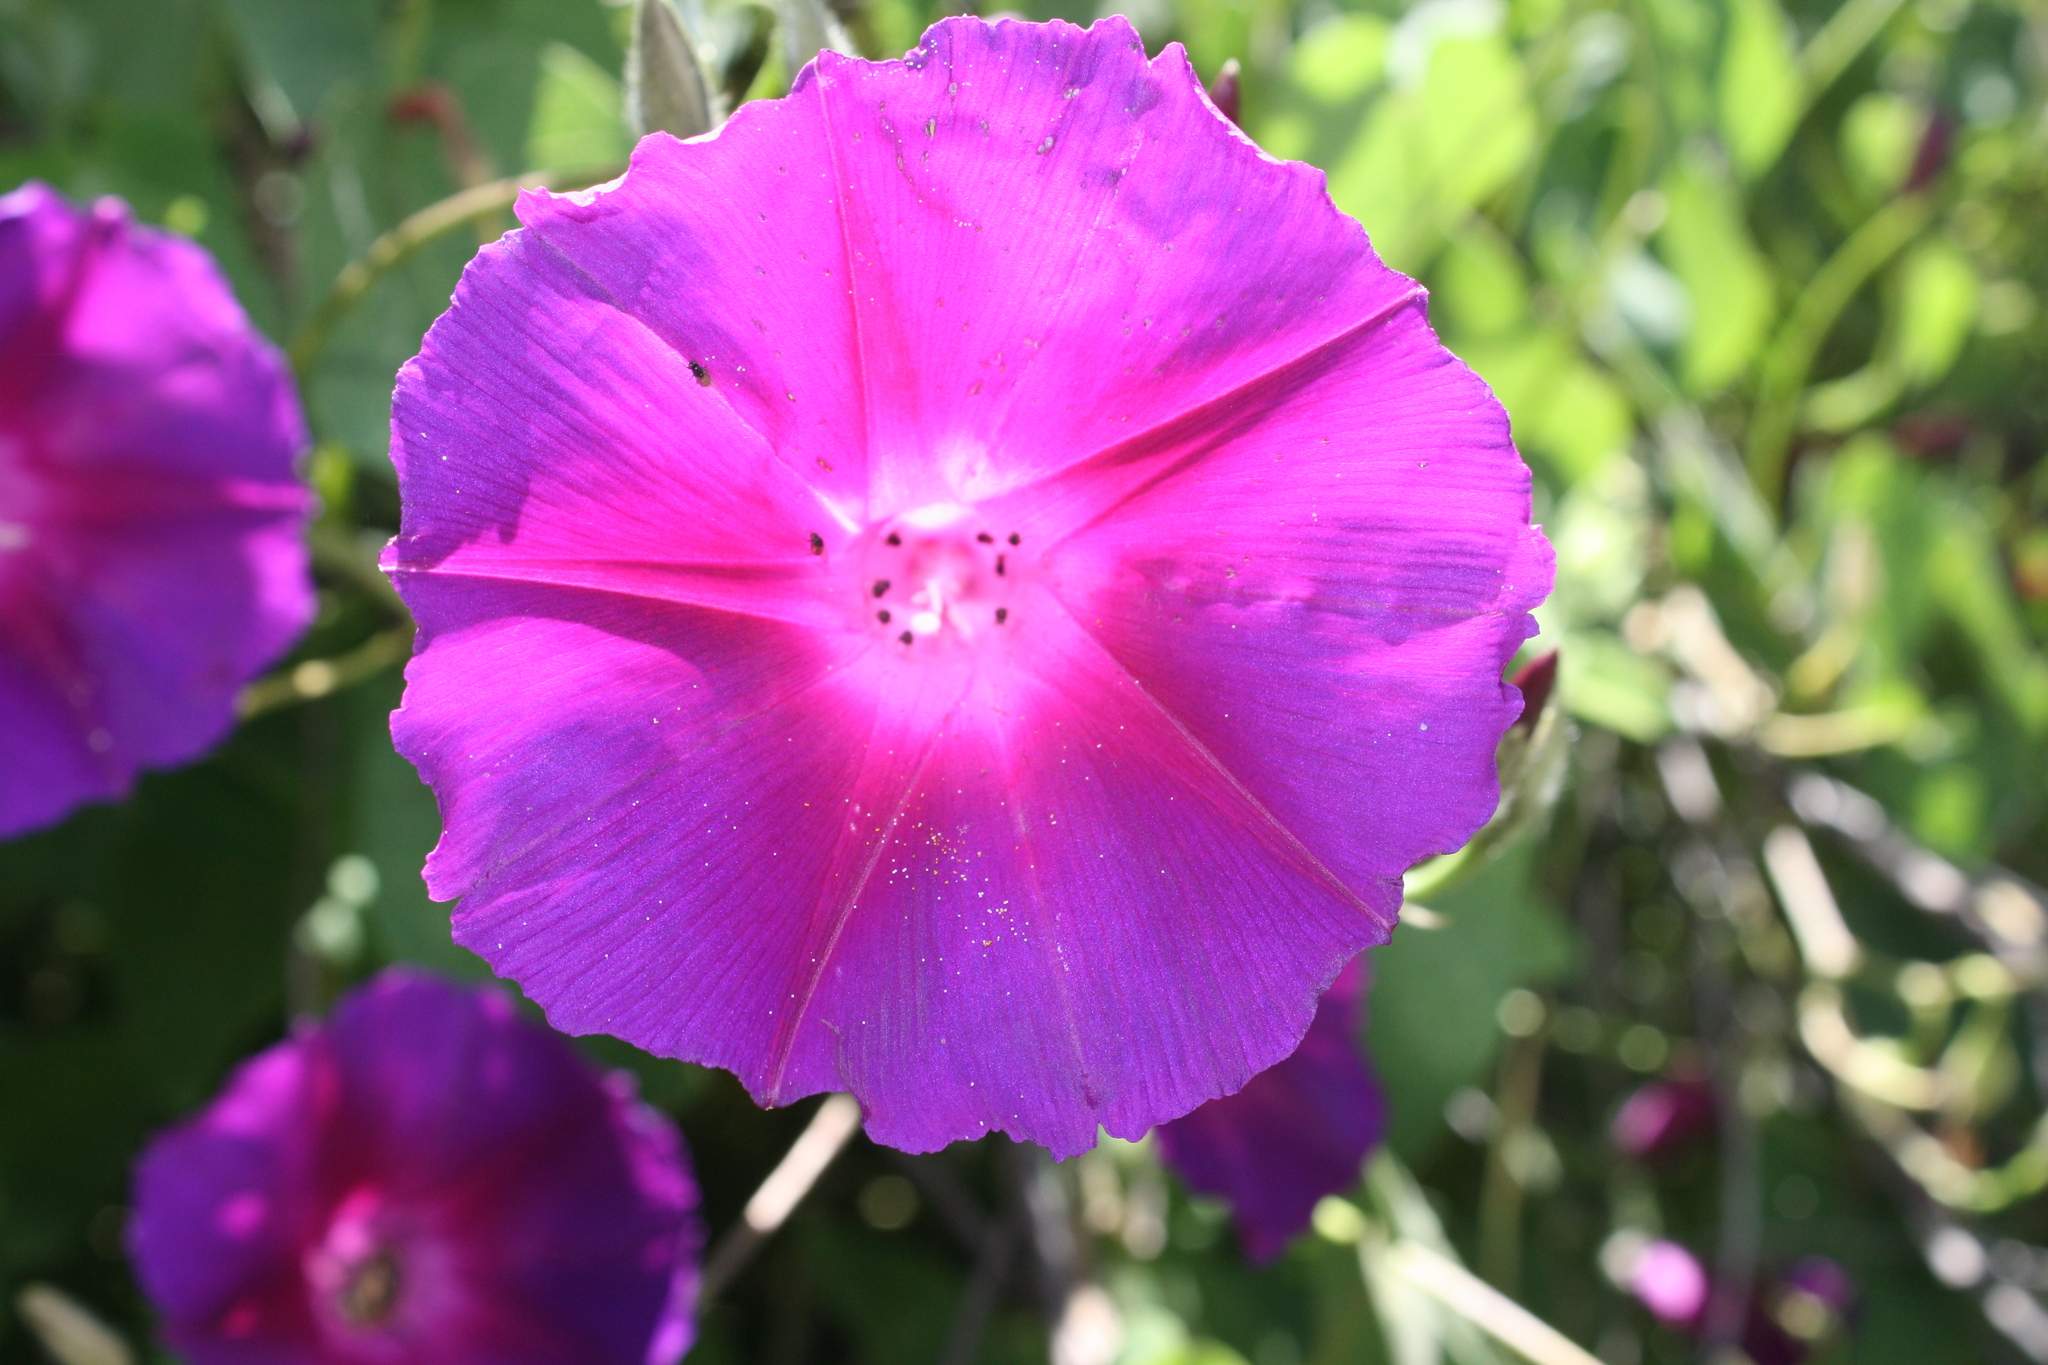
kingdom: Plantae
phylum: Tracheophyta
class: Magnoliopsida
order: Solanales
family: Convolvulaceae
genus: Ipomoea
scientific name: Ipomoea orizabensis
